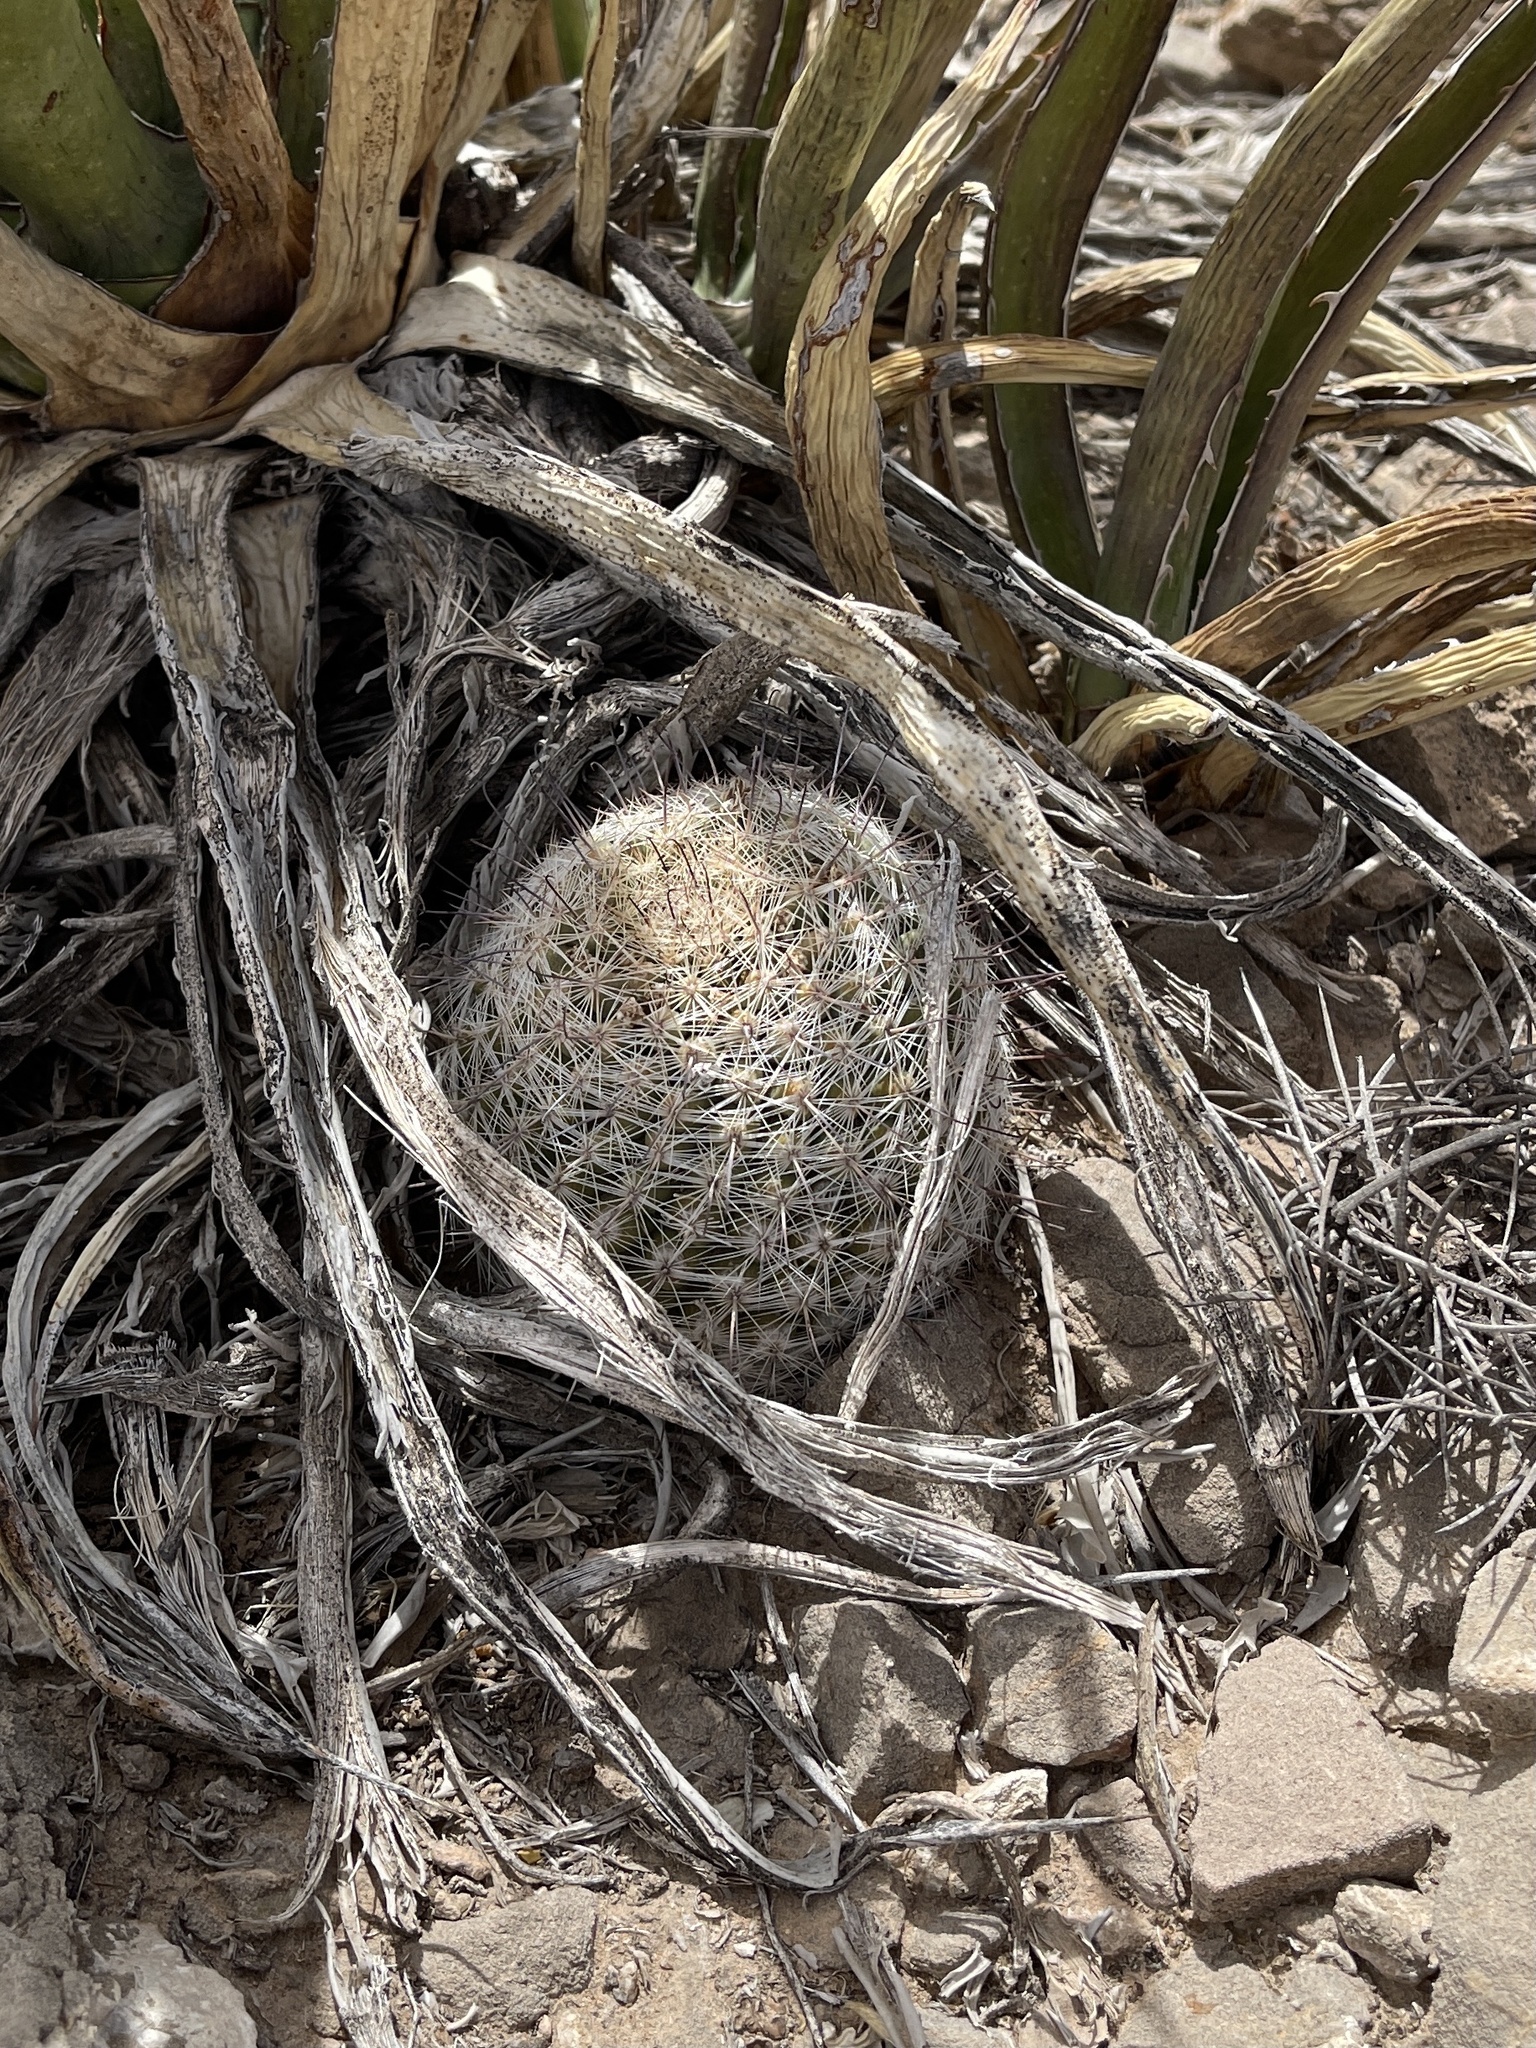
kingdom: Plantae
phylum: Tracheophyta
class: Magnoliopsida
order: Caryophyllales
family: Cactaceae
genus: Cochemiea
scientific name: Cochemiea grahamii
